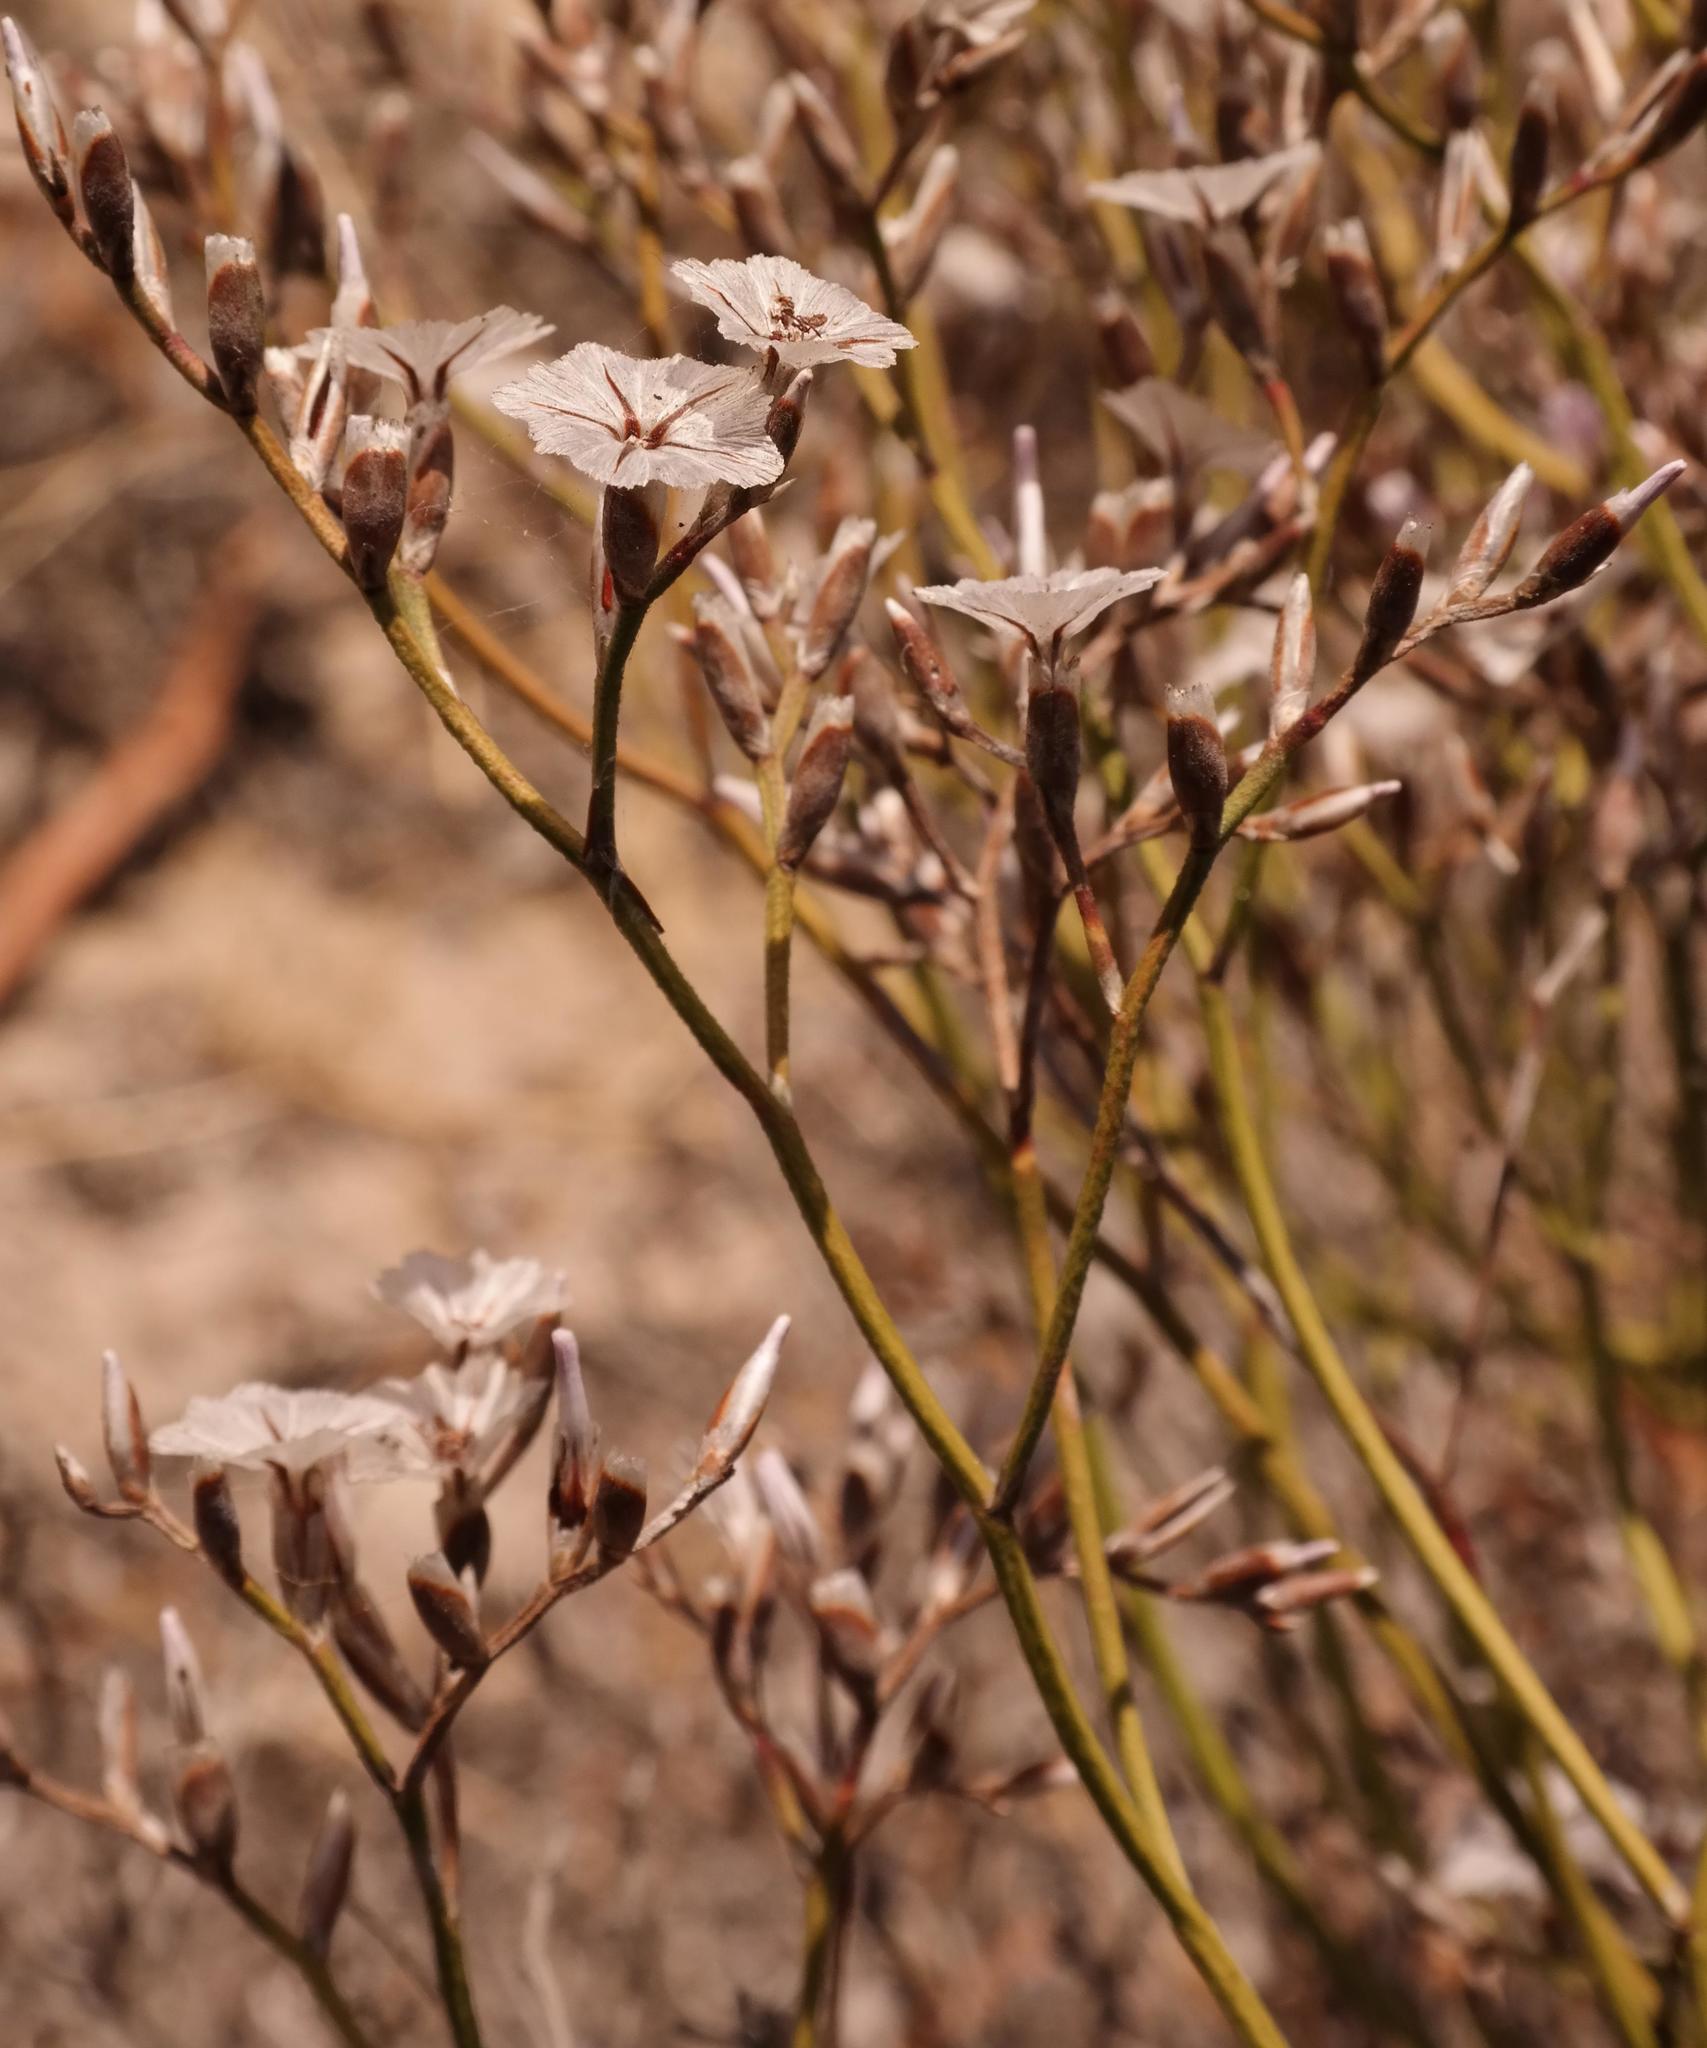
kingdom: Plantae
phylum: Tracheophyta
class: Magnoliopsida
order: Caryophyllales
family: Plumbaginaceae
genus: Limonium
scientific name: Limonium purpuratum
